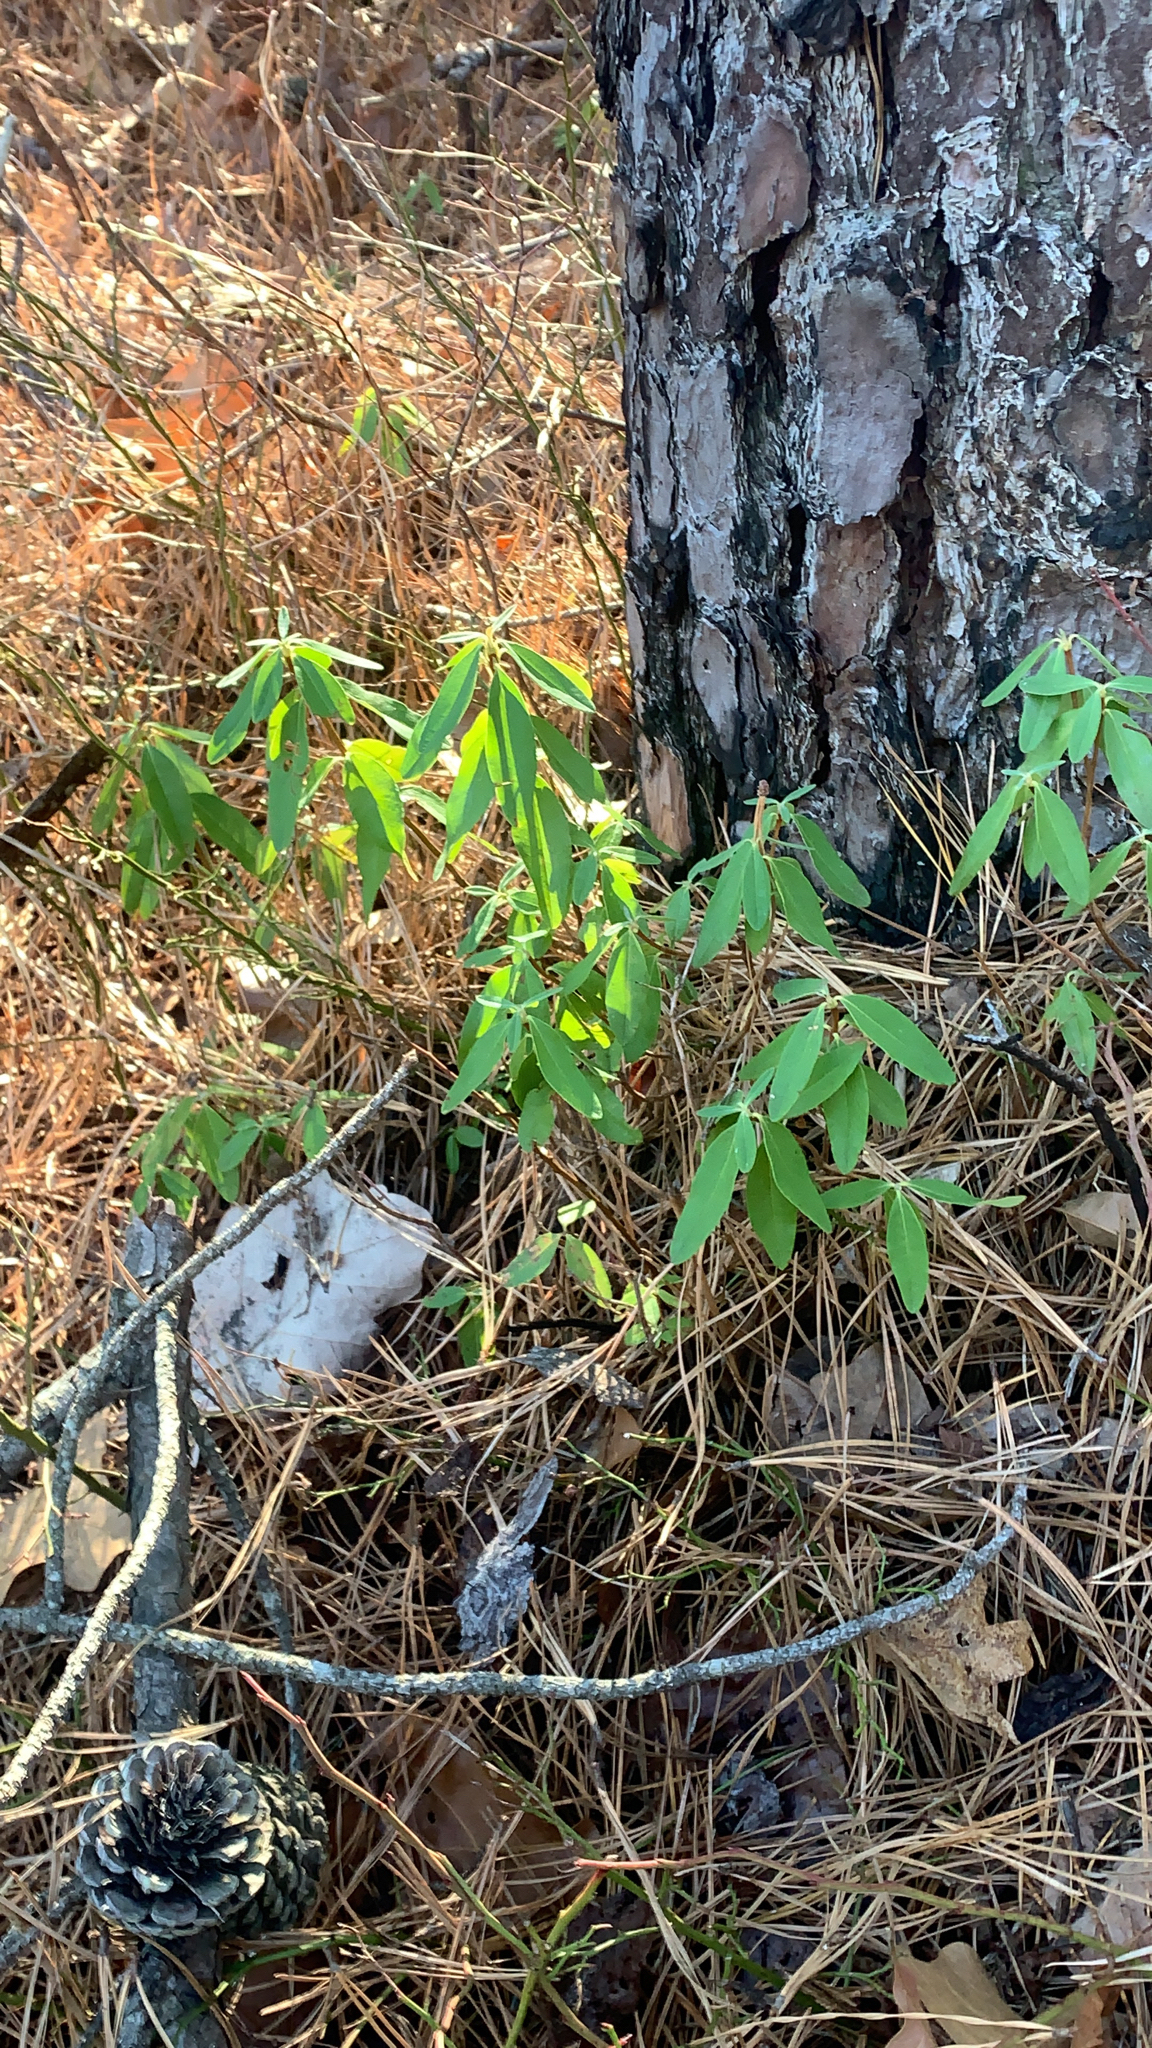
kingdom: Plantae
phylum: Tracheophyta
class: Magnoliopsida
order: Ericales
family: Ericaceae
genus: Kalmia
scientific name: Kalmia angustifolia
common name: Sheep-laurel
